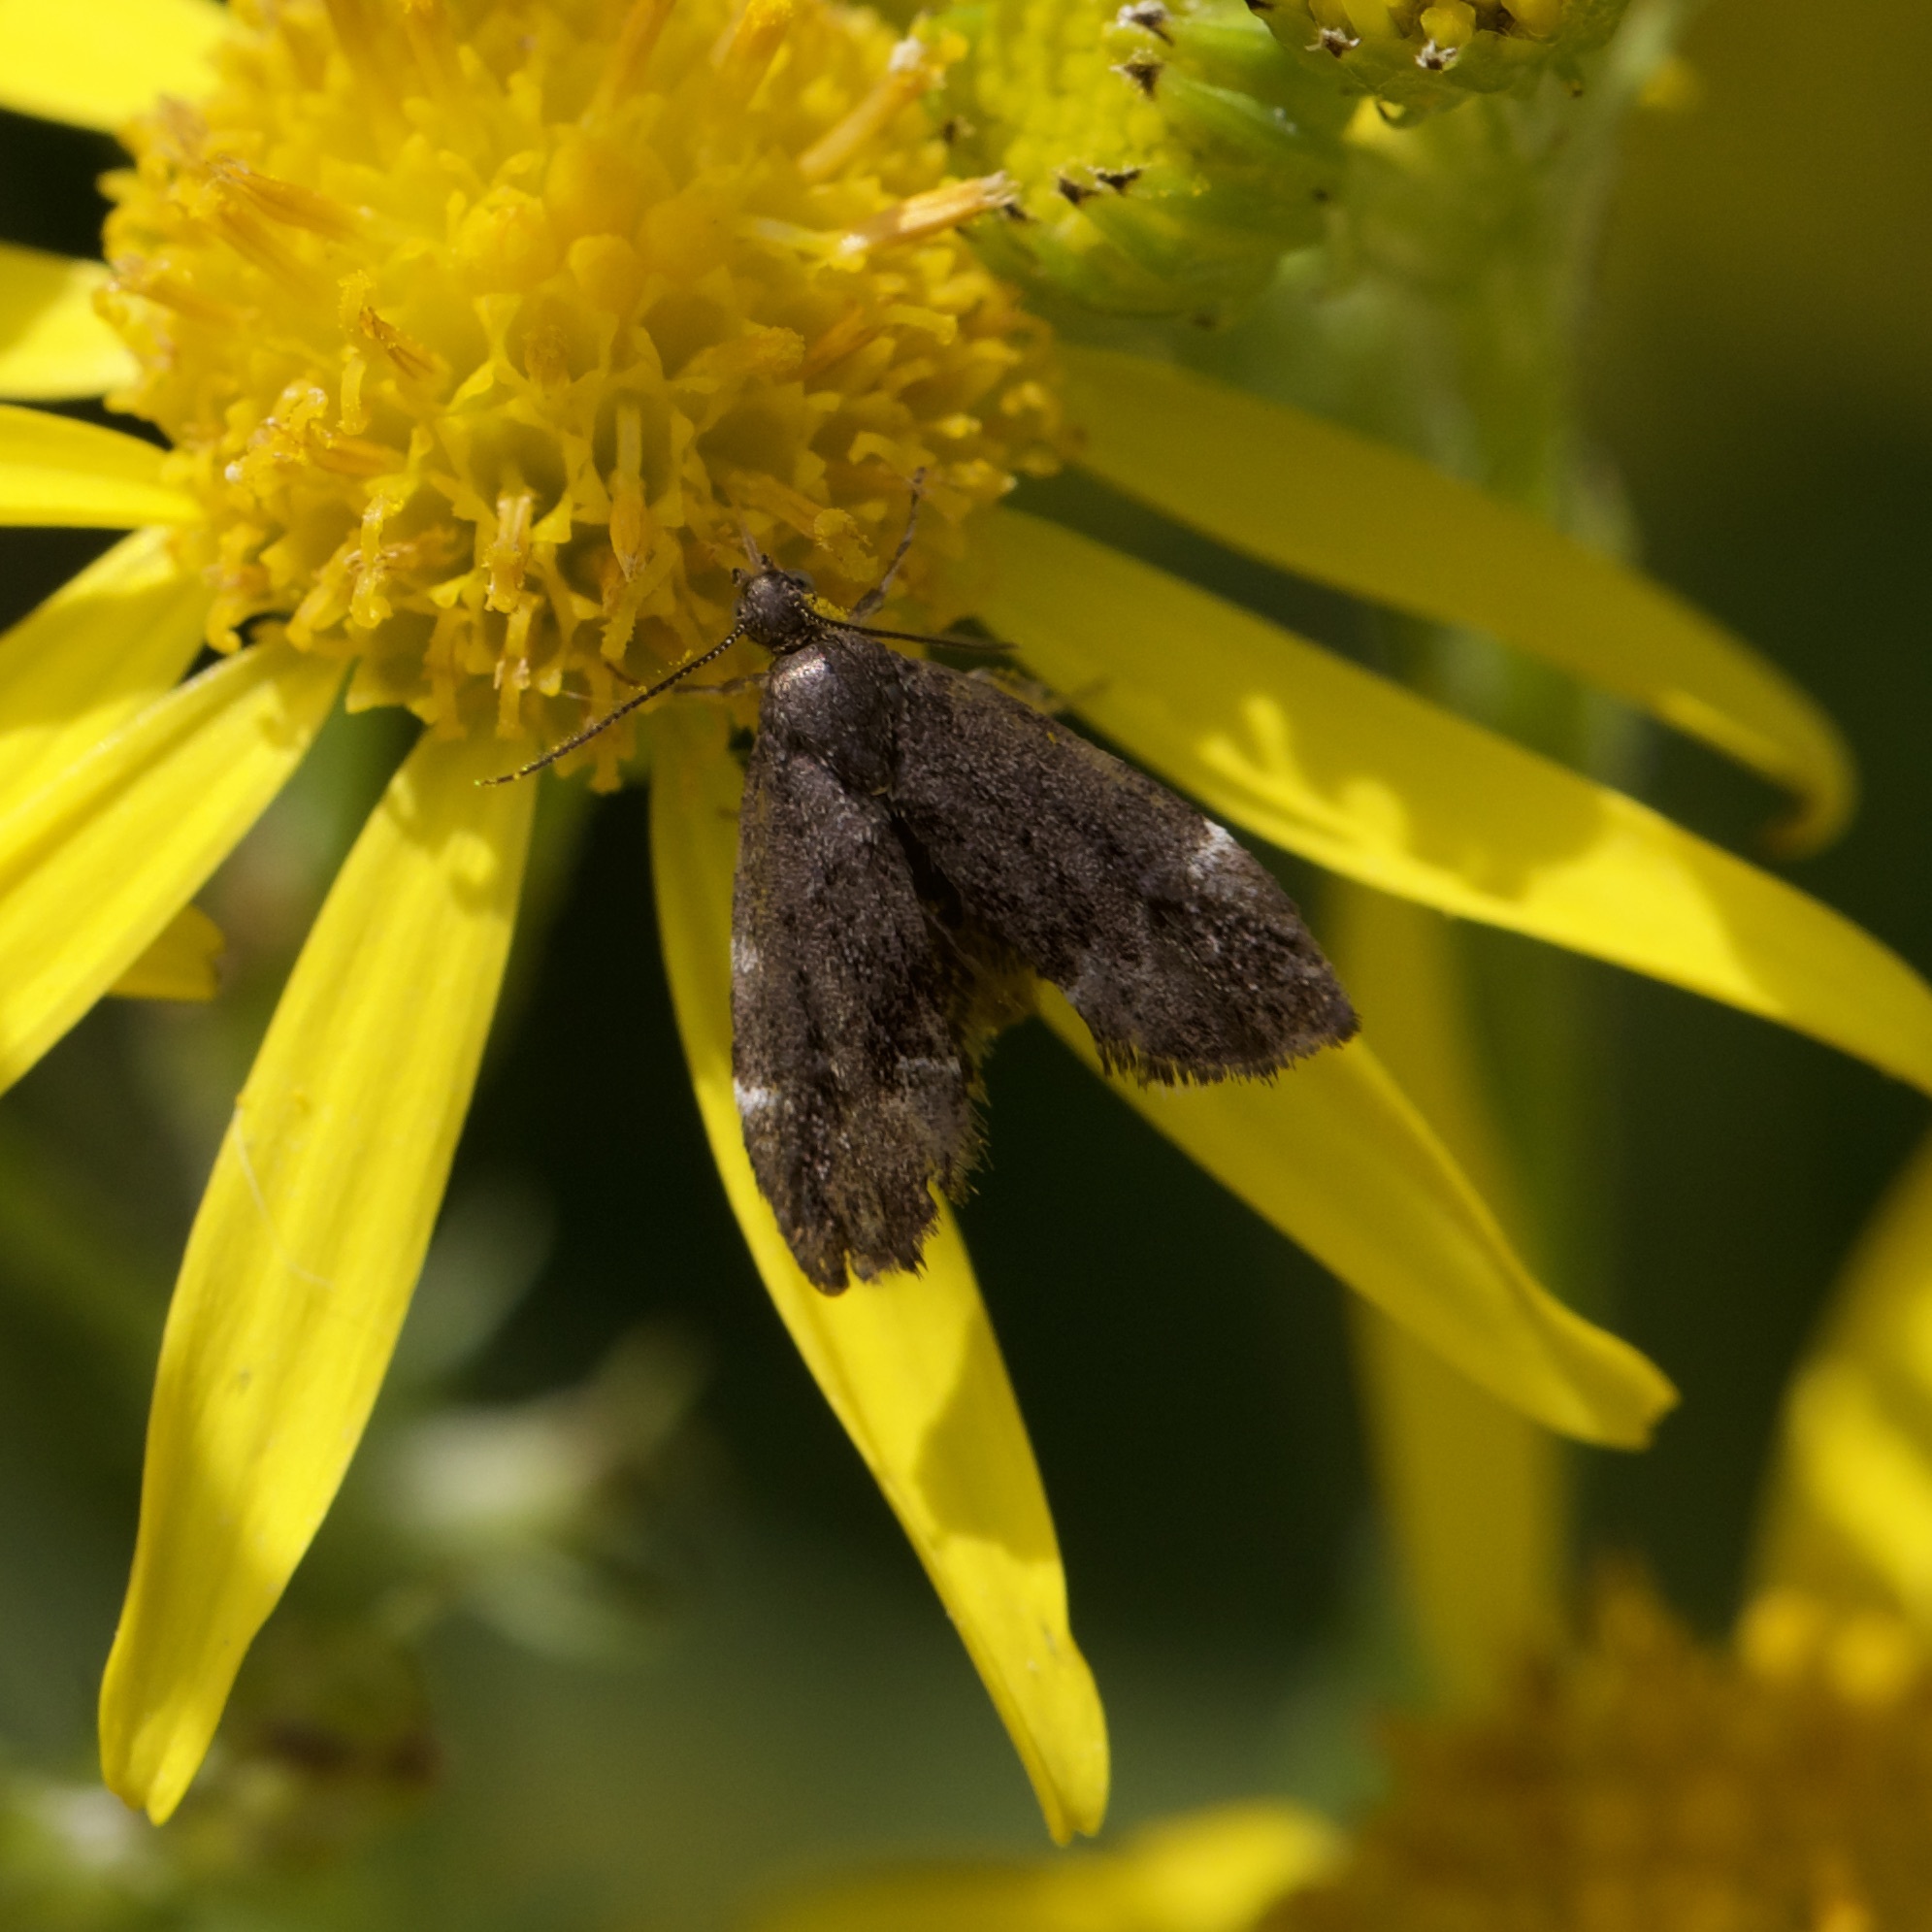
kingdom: Animalia
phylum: Arthropoda
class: Insecta
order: Lepidoptera
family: Choreutidae
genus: Anthophila
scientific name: Anthophila fabriciana
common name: Nettle-tap
